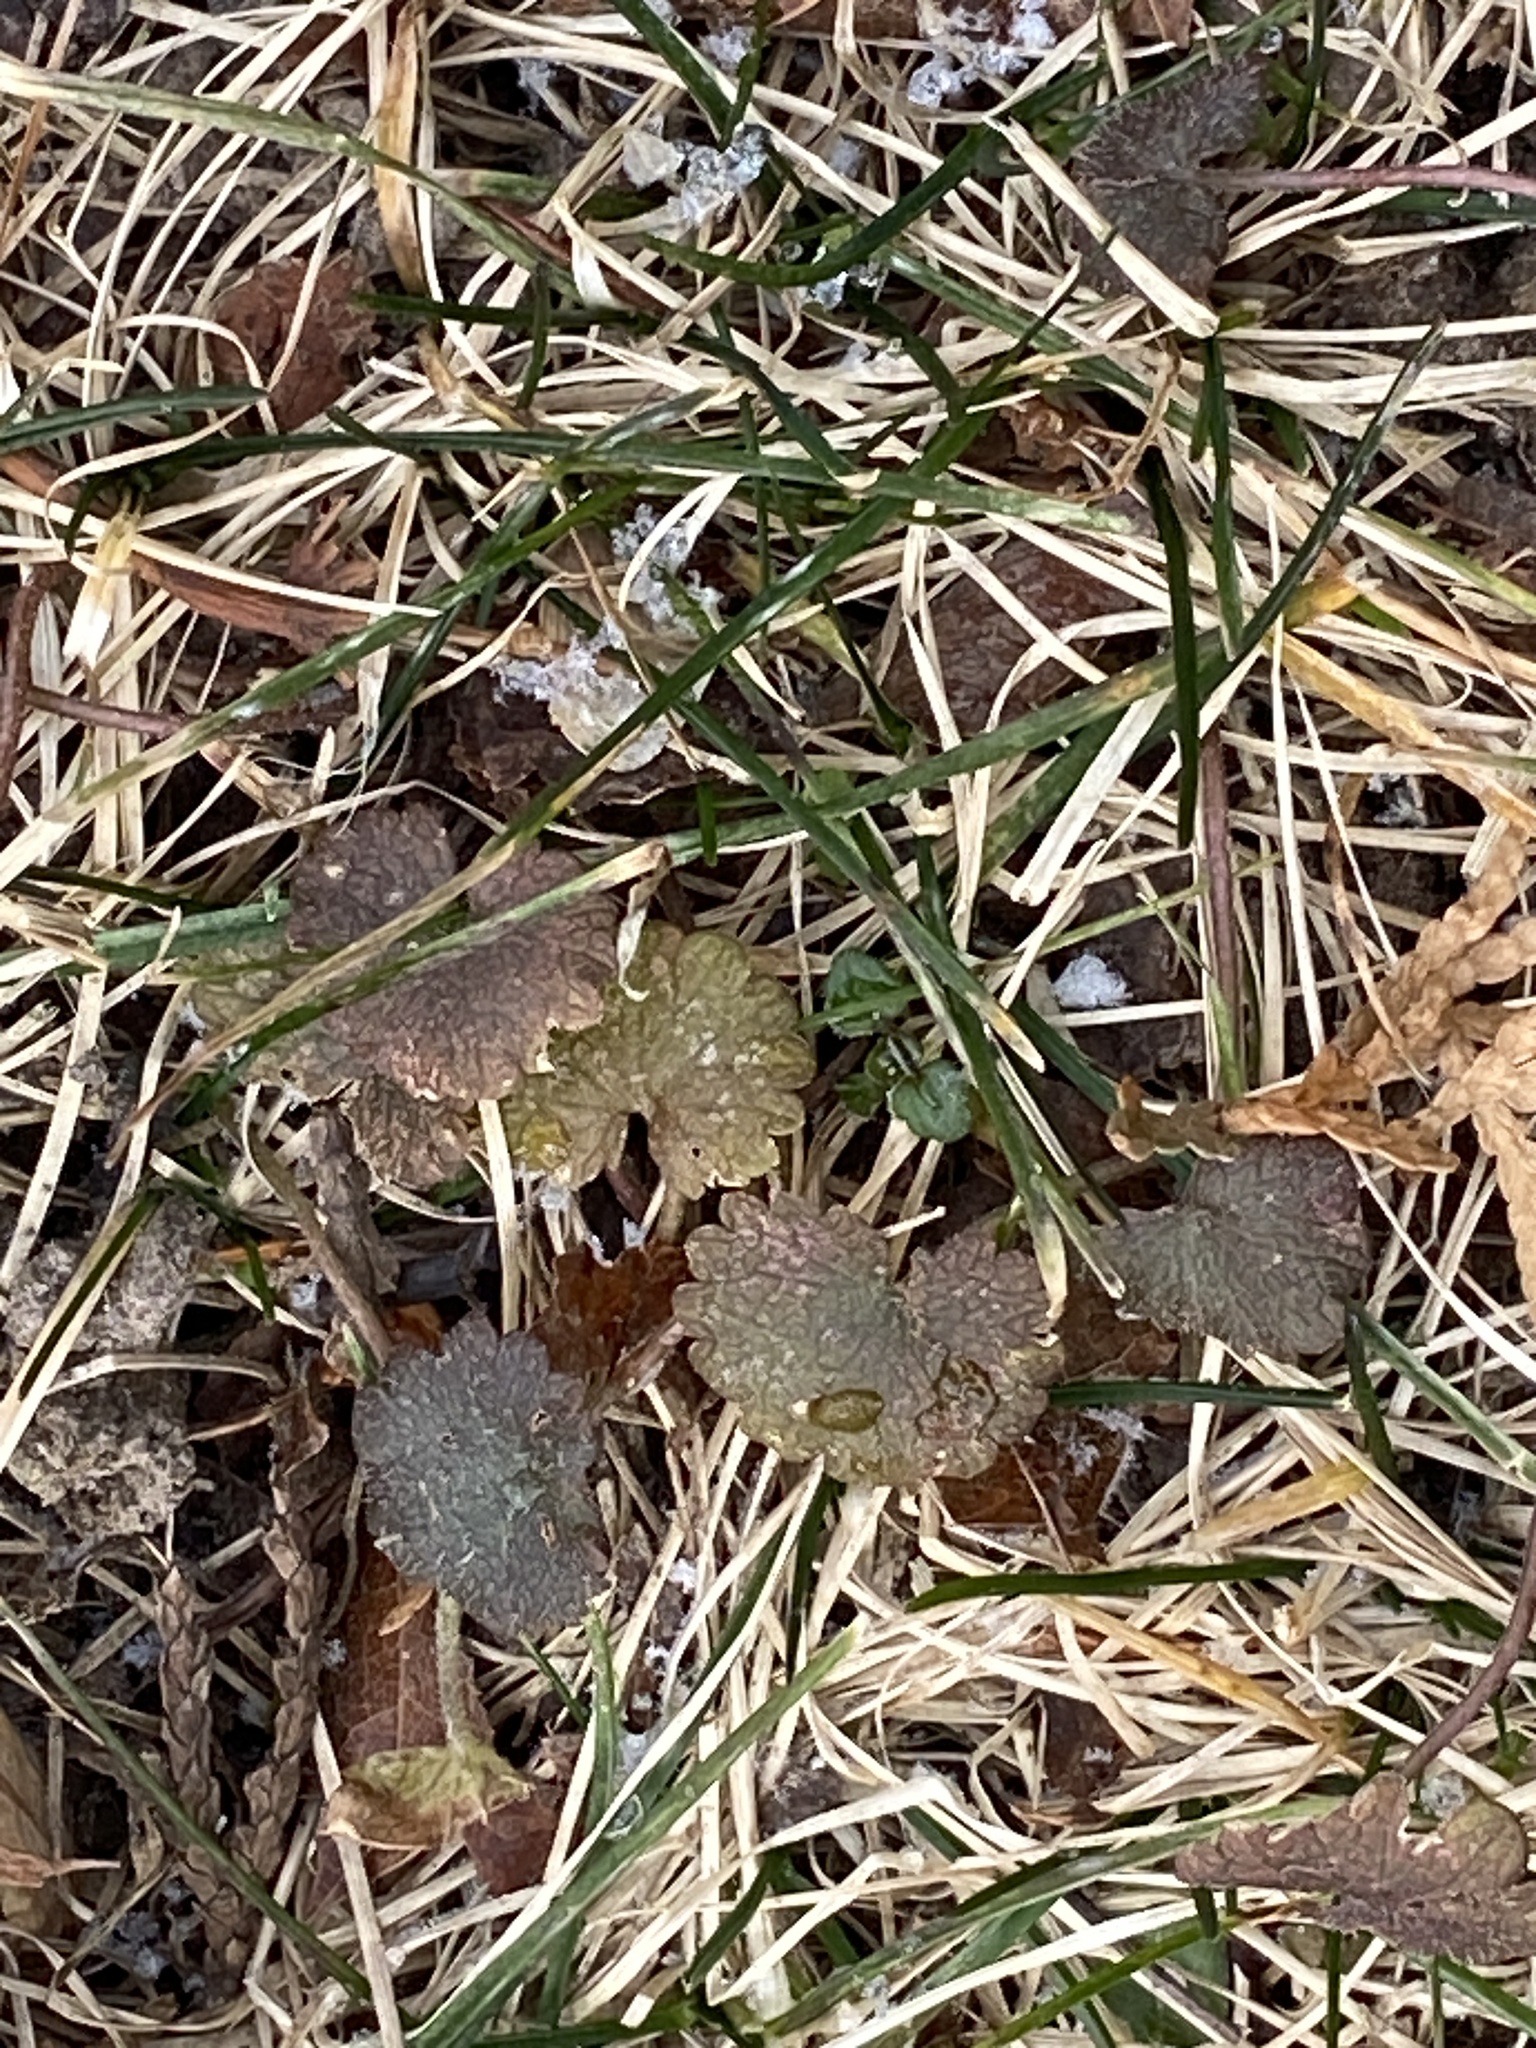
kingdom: Plantae
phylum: Tracheophyta
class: Magnoliopsida
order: Lamiales
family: Lamiaceae
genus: Glechoma
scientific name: Glechoma hederacea
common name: Ground ivy
